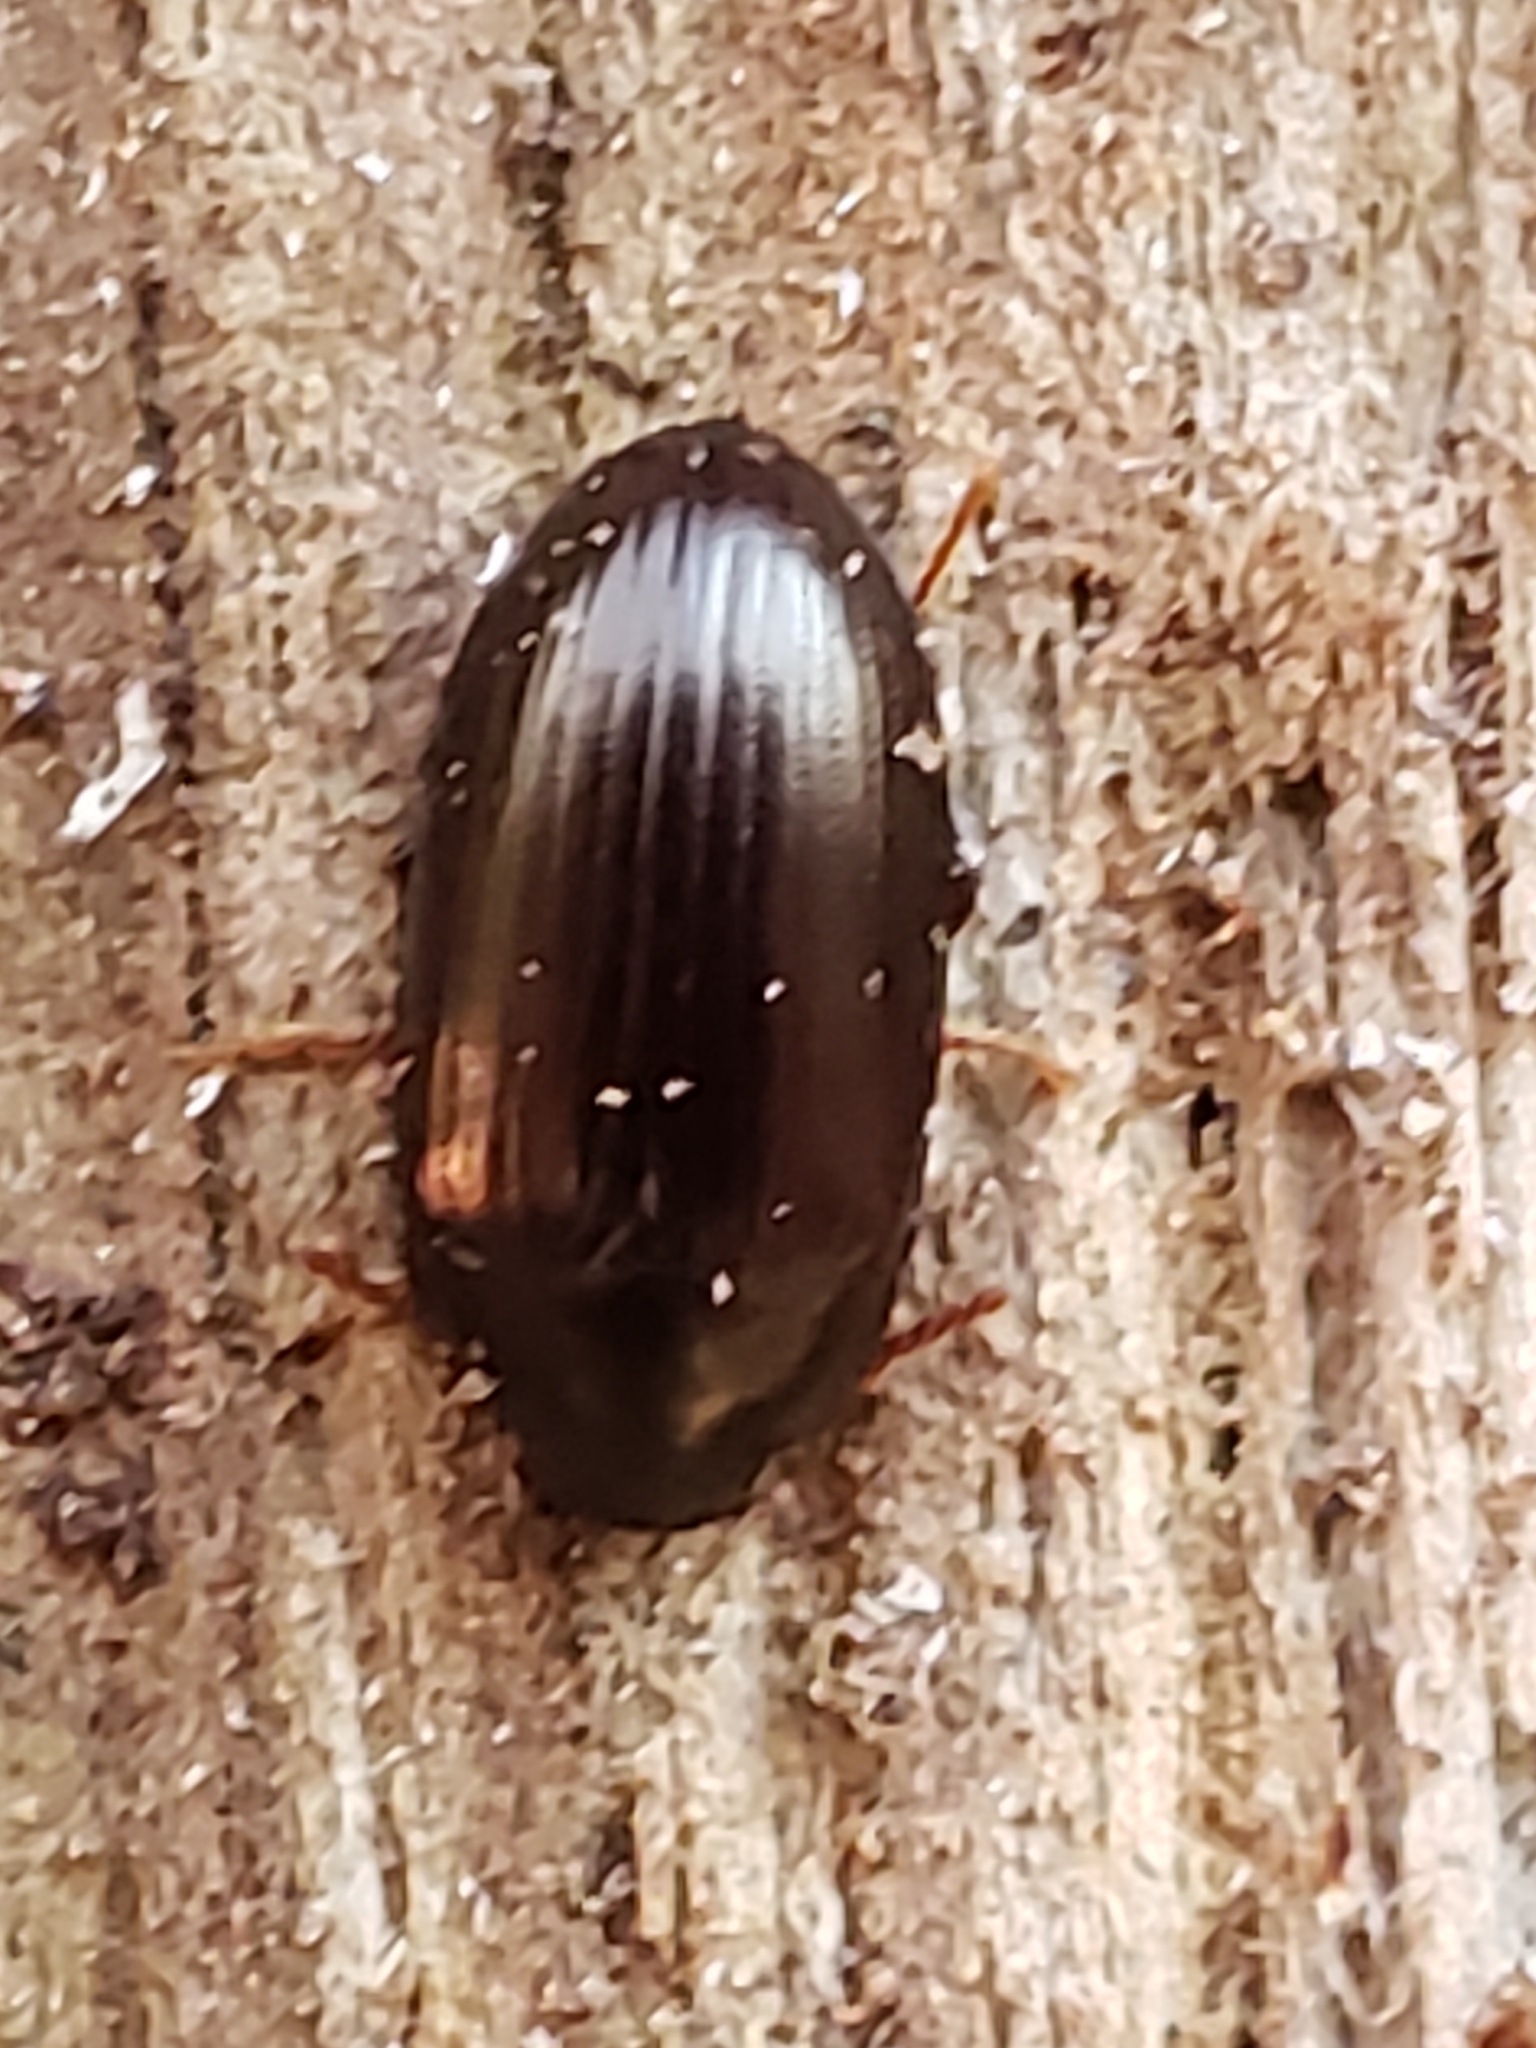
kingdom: Animalia
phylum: Arthropoda
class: Insecta
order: Coleoptera
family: Tenebrionidae
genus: Platydema
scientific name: Platydema americana
